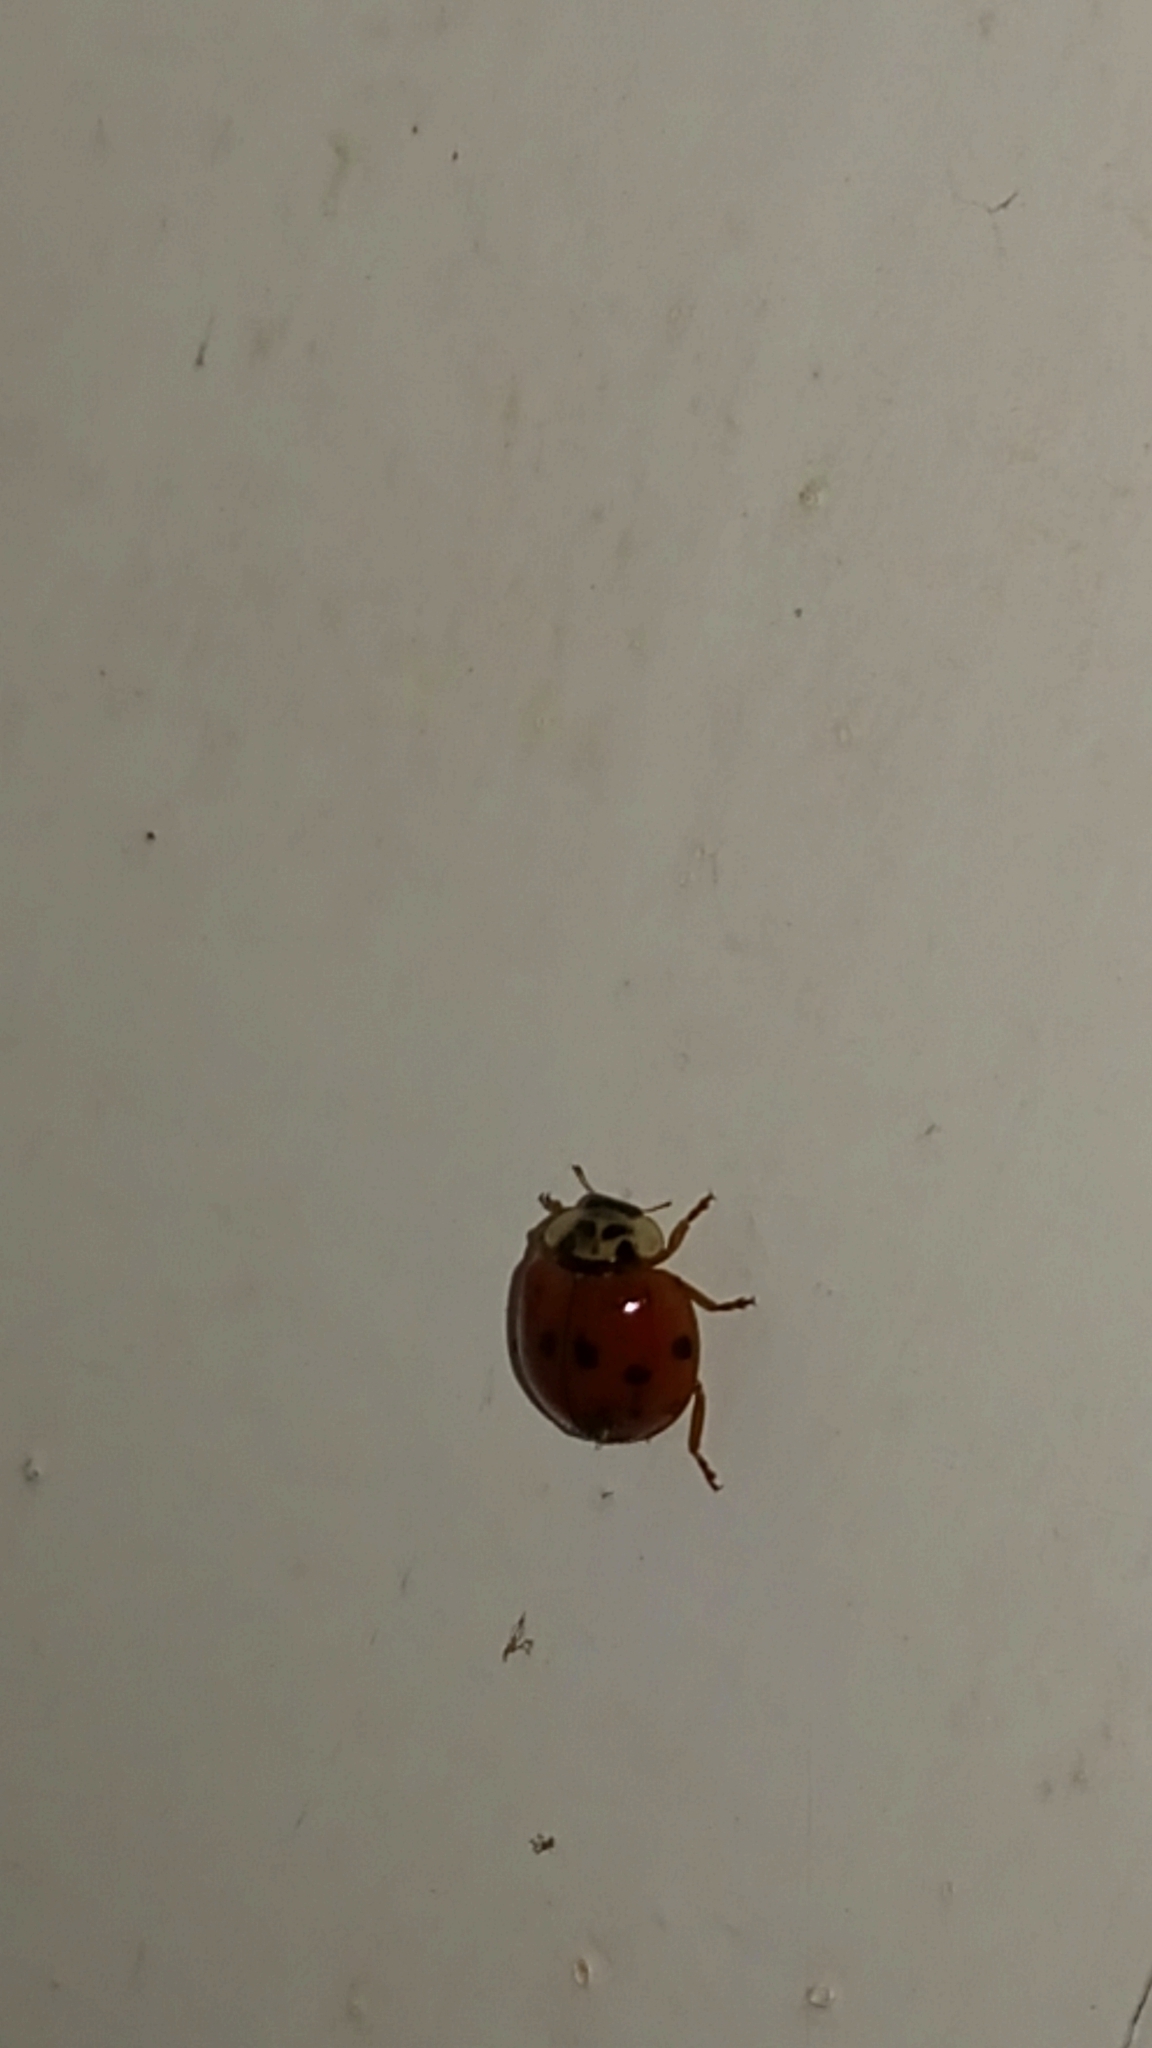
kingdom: Animalia
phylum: Arthropoda
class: Insecta
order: Coleoptera
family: Coccinellidae
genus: Harmonia
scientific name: Harmonia axyridis
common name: Harlequin ladybird
